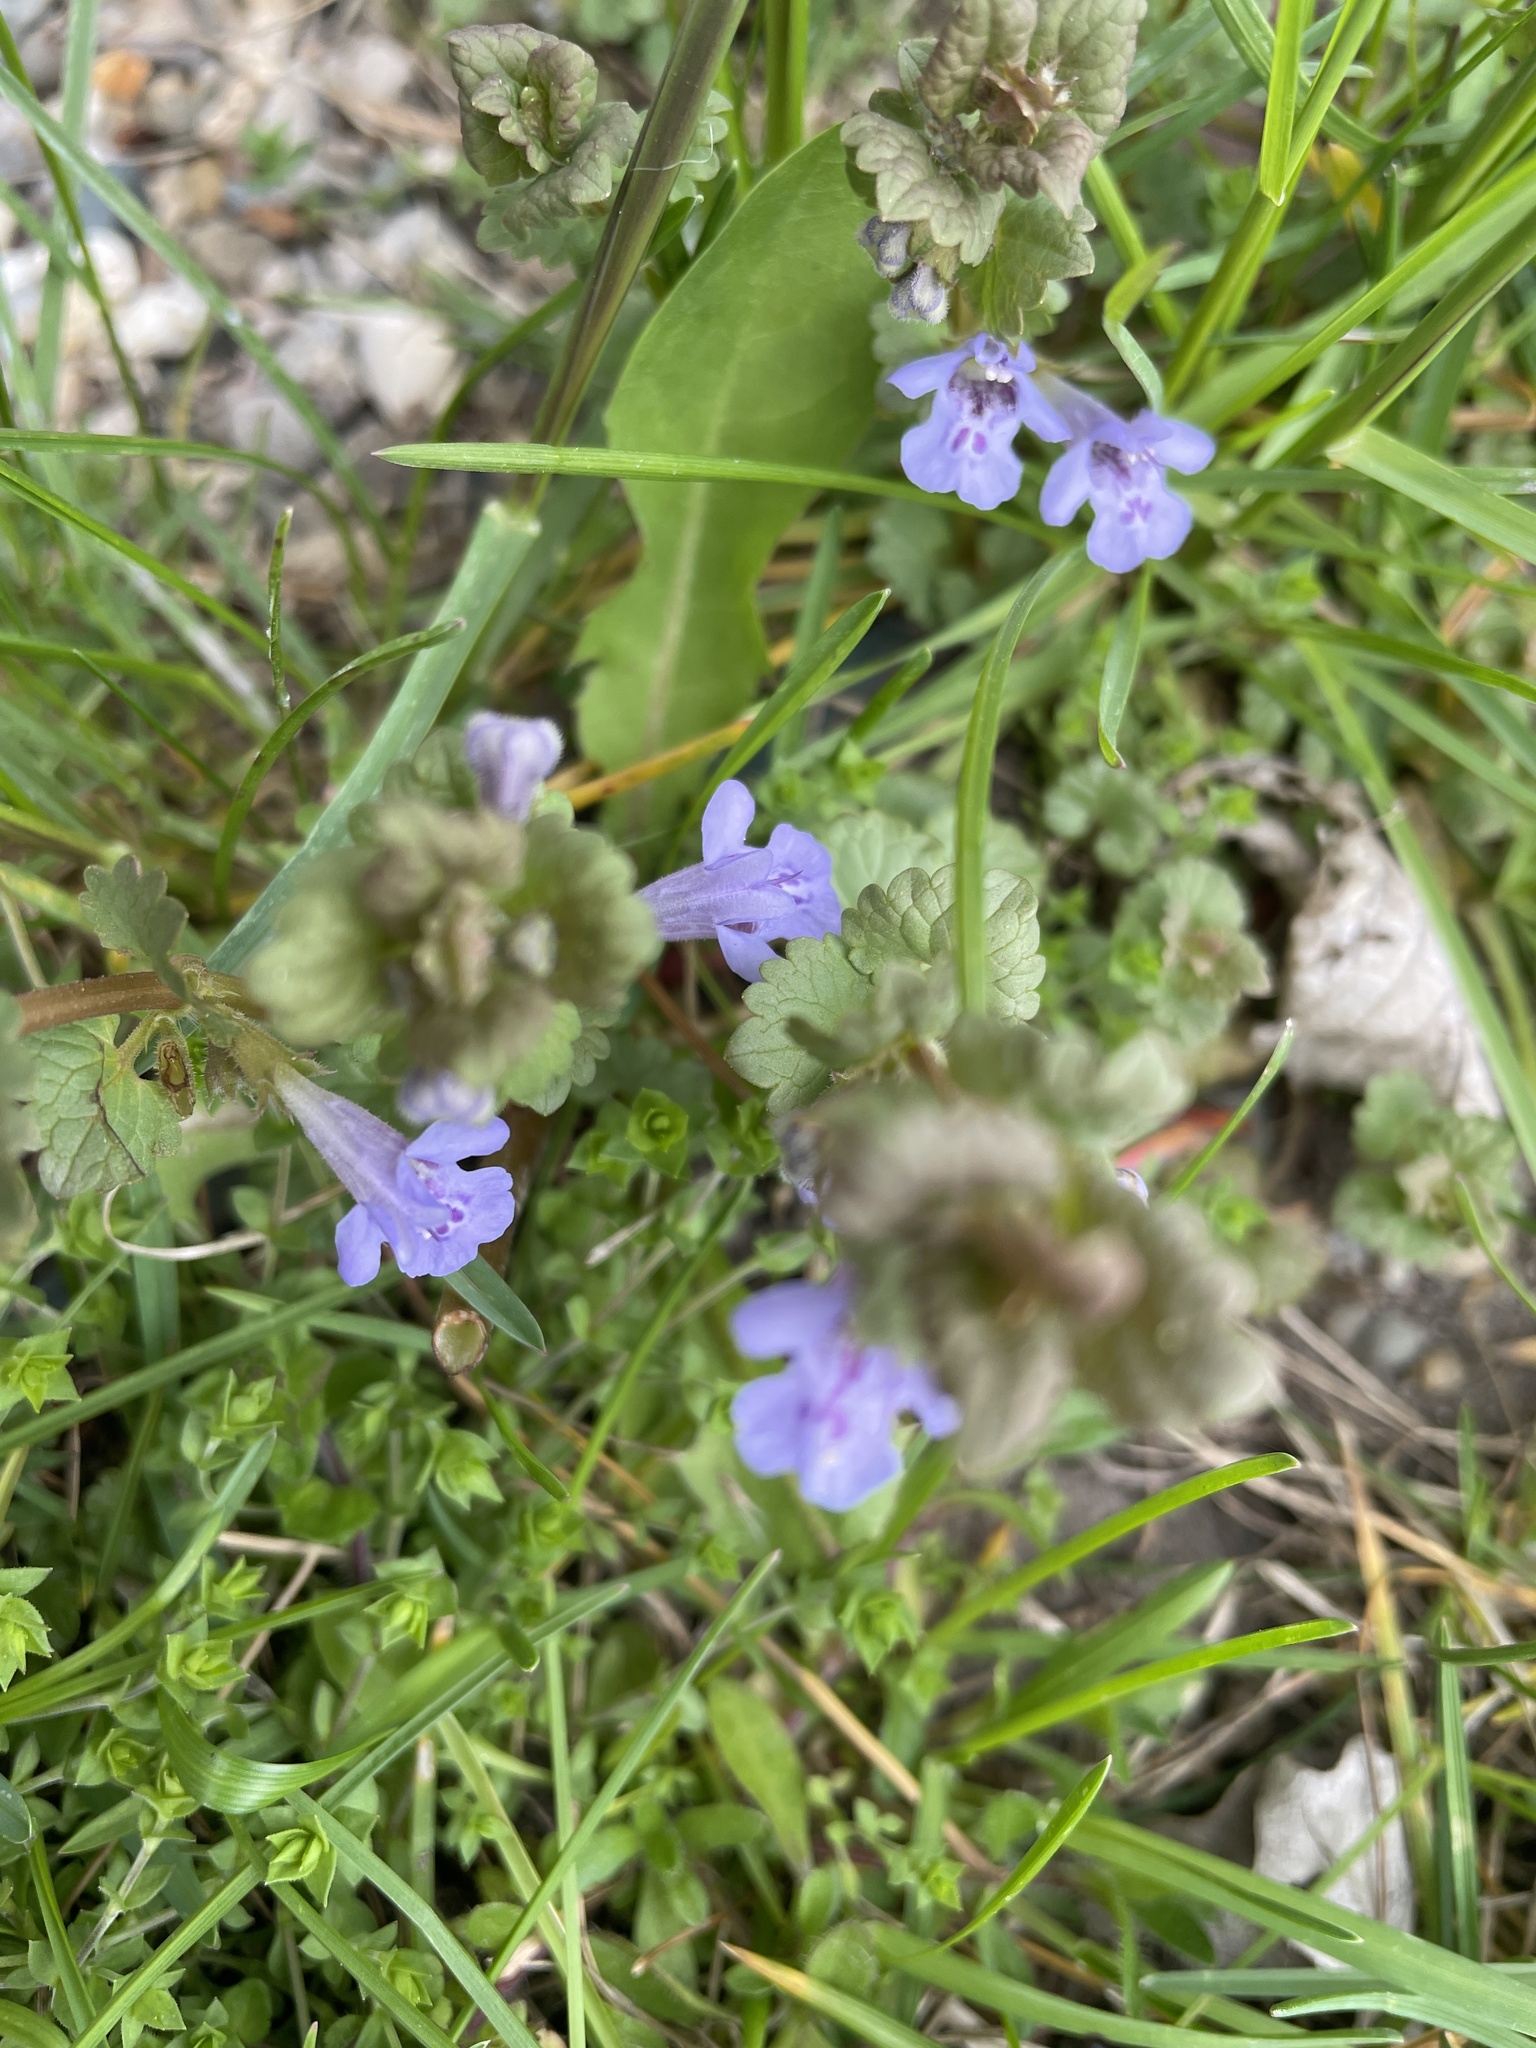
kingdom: Plantae
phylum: Tracheophyta
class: Magnoliopsida
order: Lamiales
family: Lamiaceae
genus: Glechoma
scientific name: Glechoma hederacea
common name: Ground ivy
